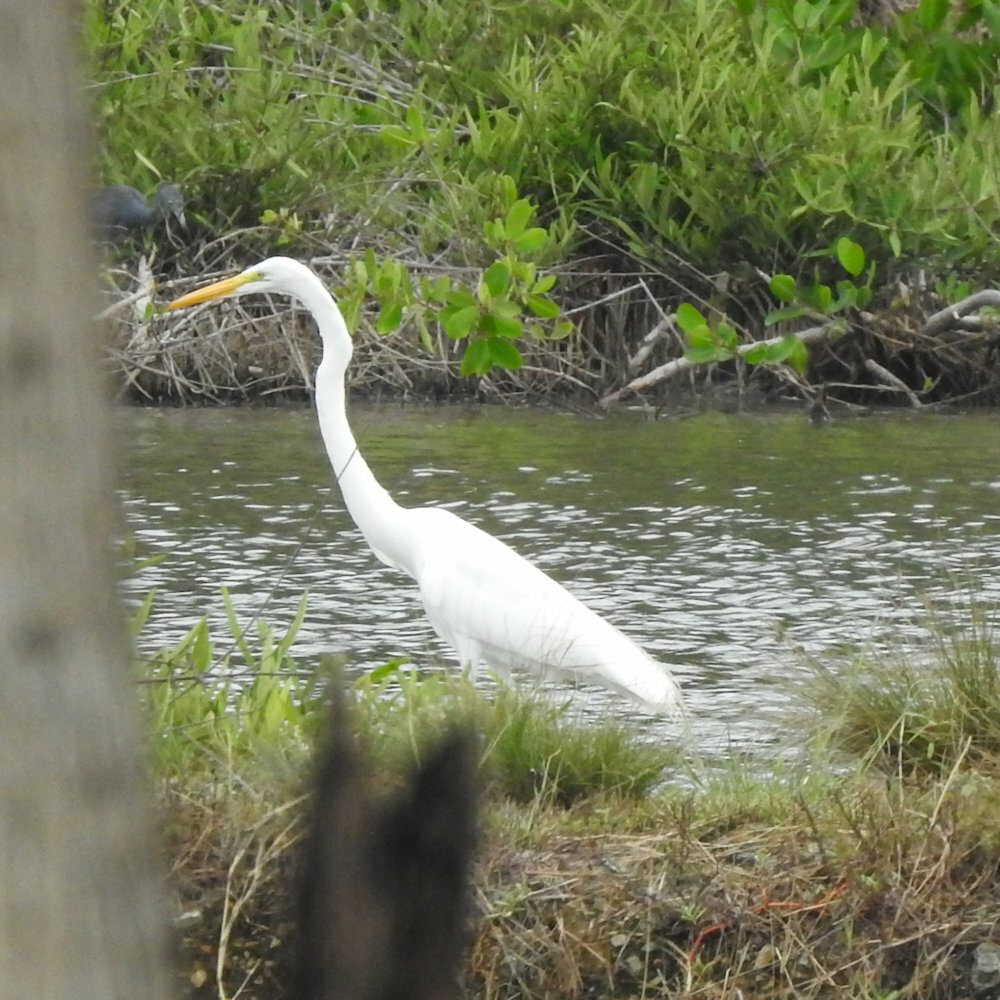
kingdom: Animalia
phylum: Chordata
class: Aves
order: Pelecaniformes
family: Ardeidae
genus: Ardea
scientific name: Ardea alba
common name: Great egret
